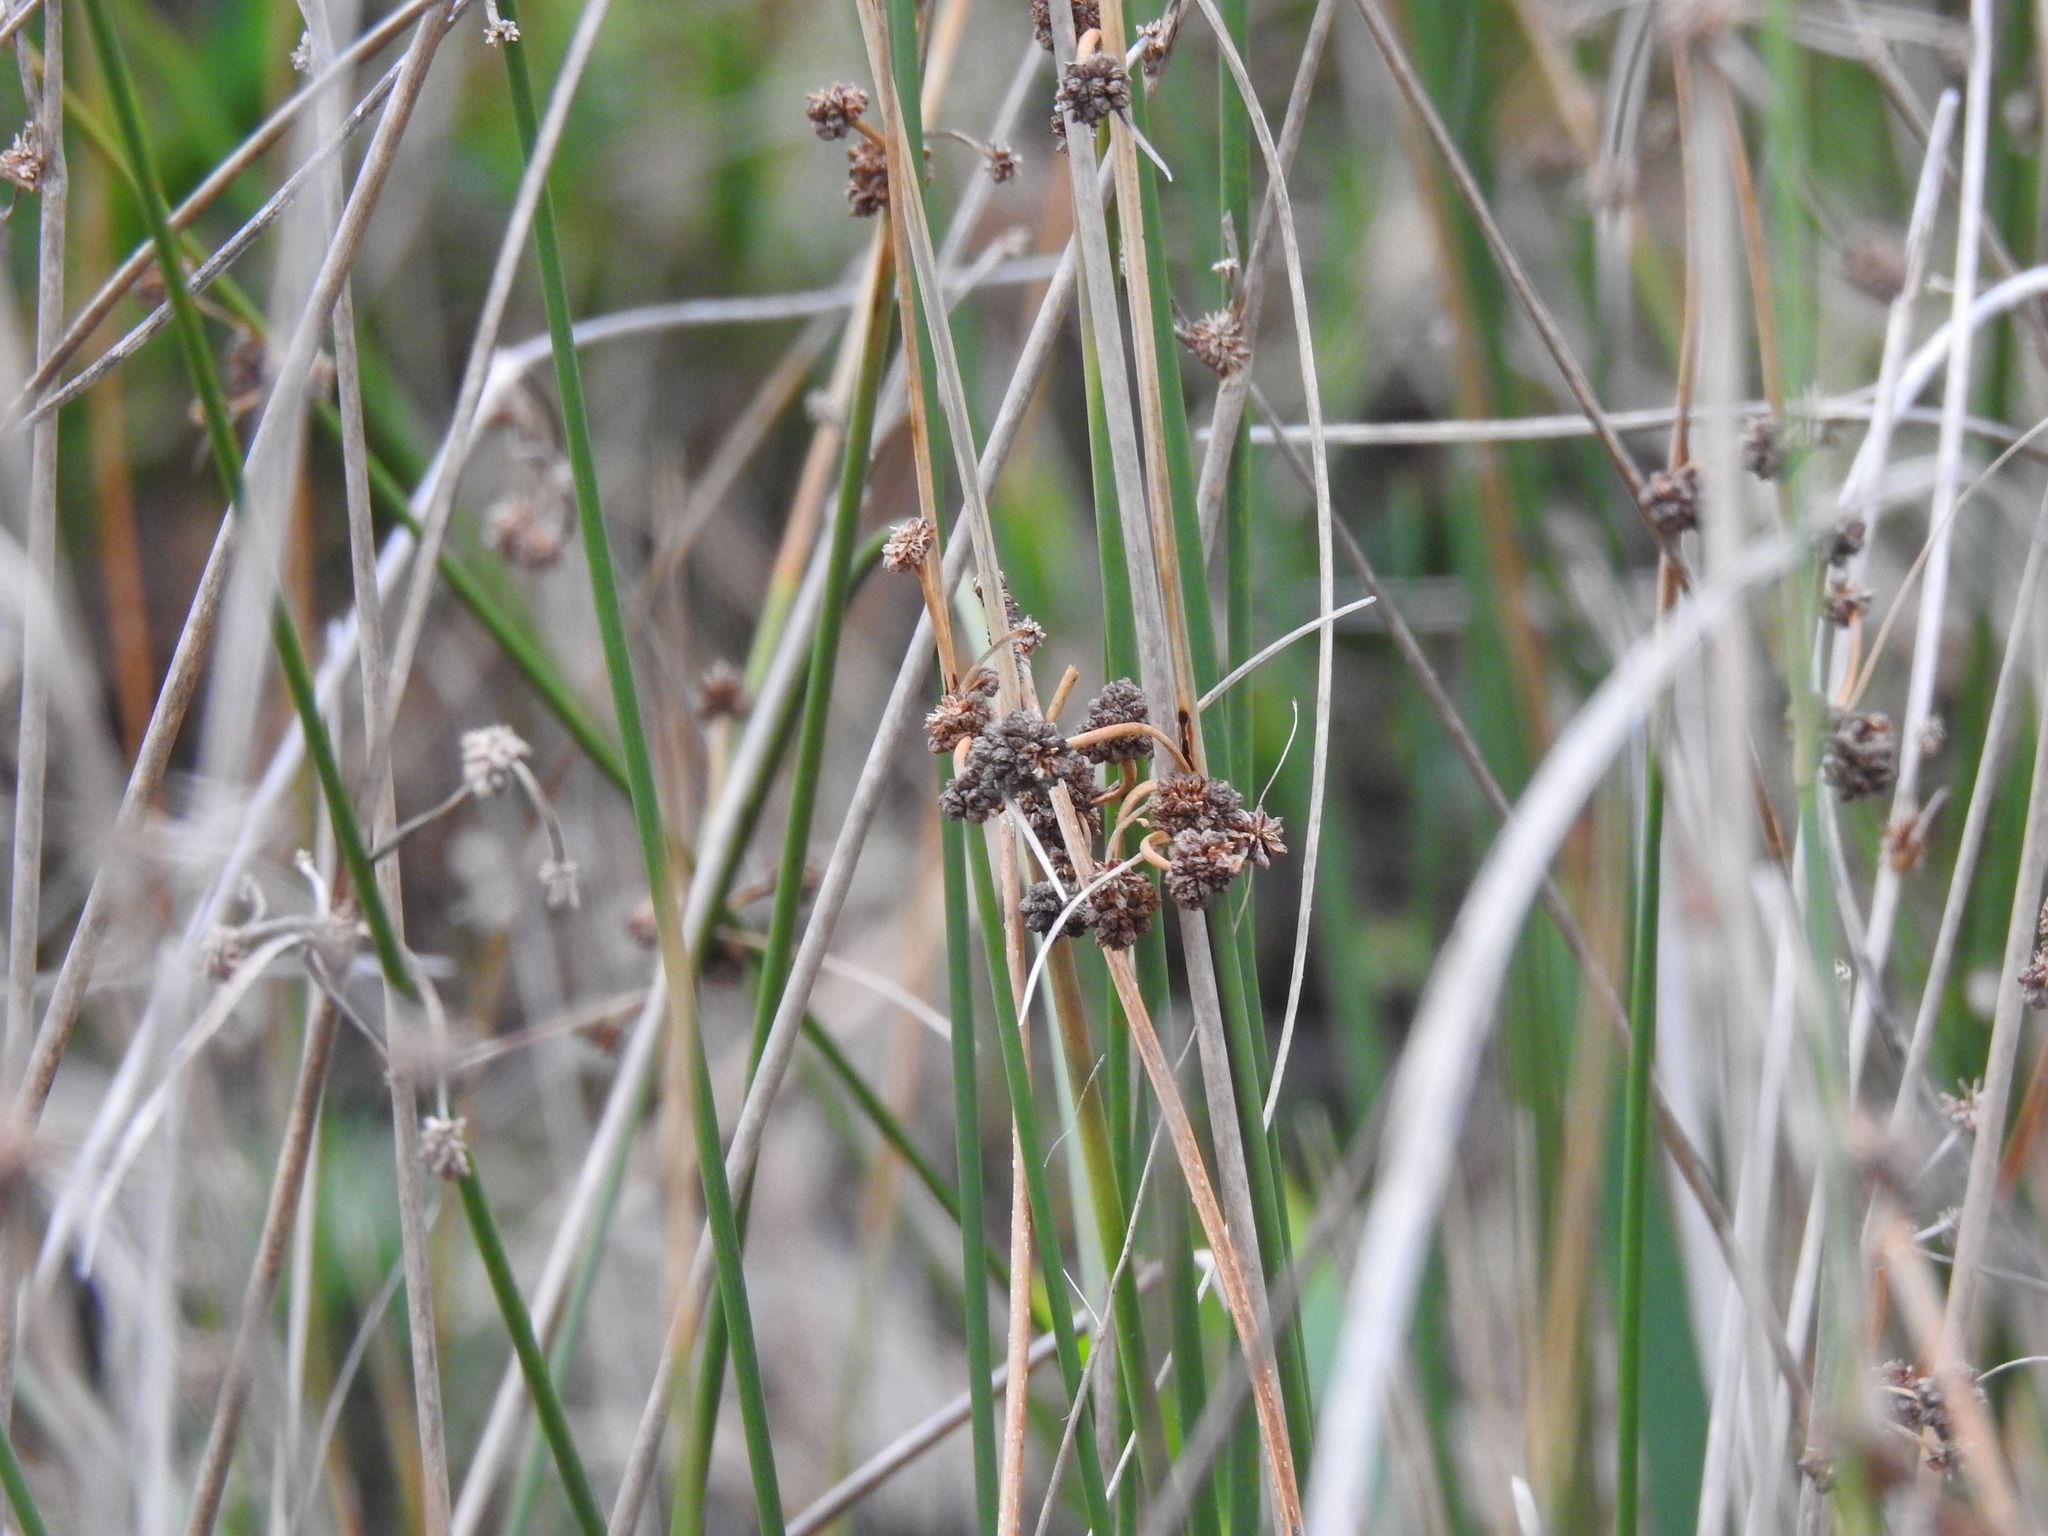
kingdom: Plantae
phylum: Tracheophyta
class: Liliopsida
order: Poales
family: Cyperaceae
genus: Scirpoides
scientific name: Scirpoides holoschoenus
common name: Round-headed club-rush
